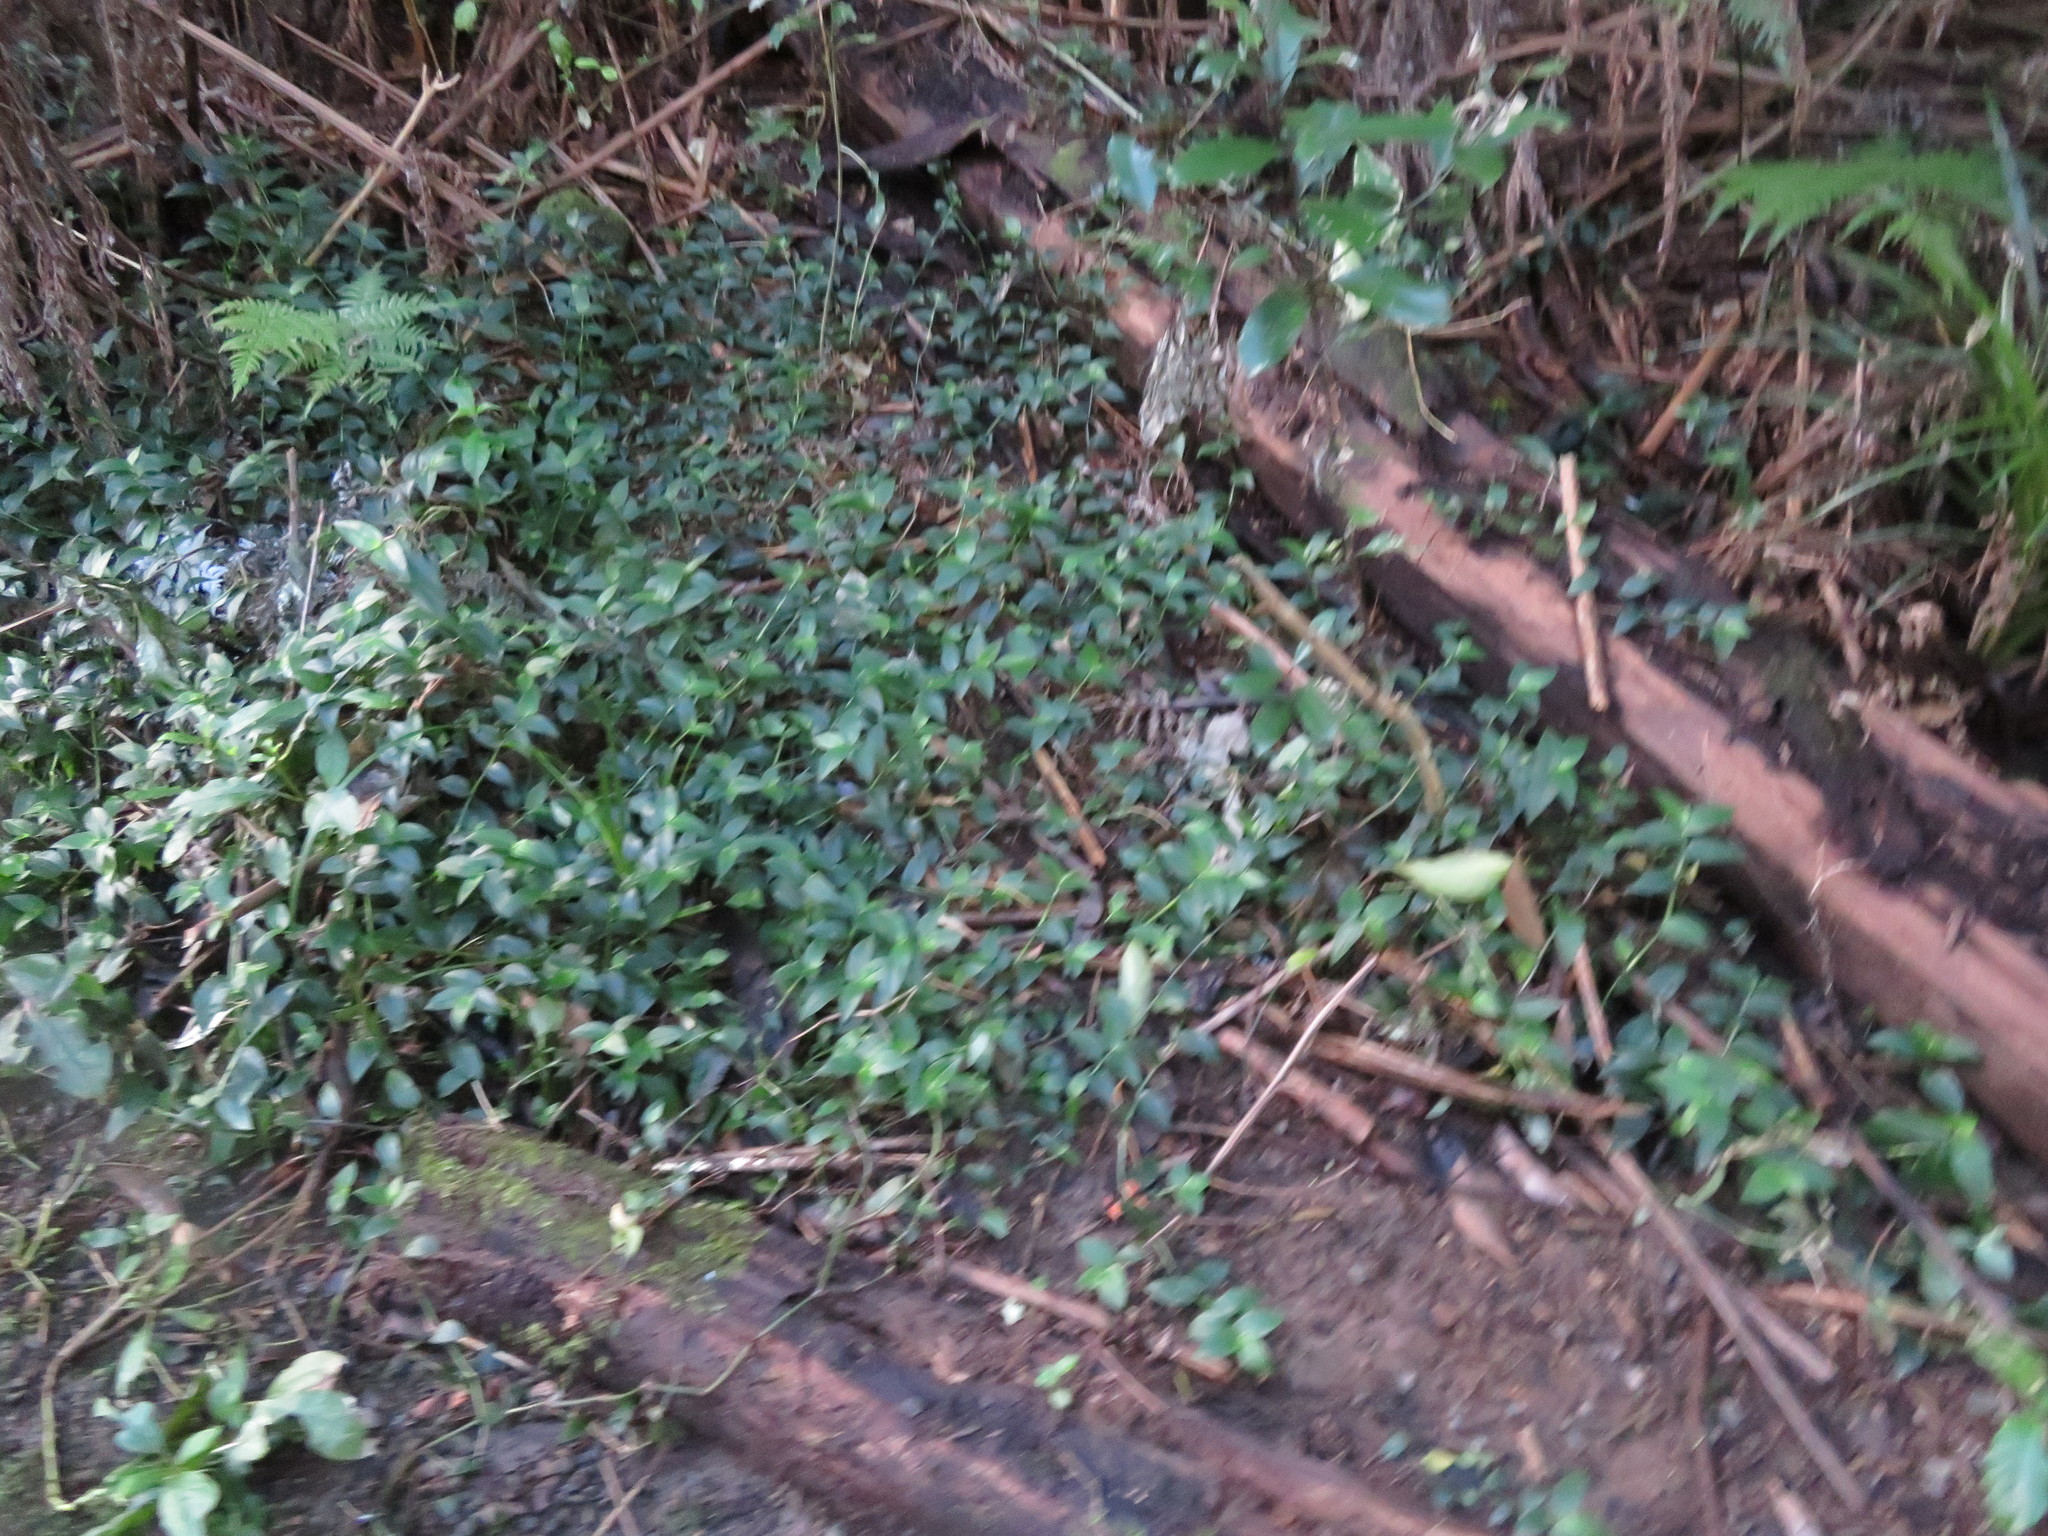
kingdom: Plantae
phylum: Tracheophyta
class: Liliopsida
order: Commelinales
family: Commelinaceae
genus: Tradescantia
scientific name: Tradescantia fluminensis
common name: Wandering-jew
